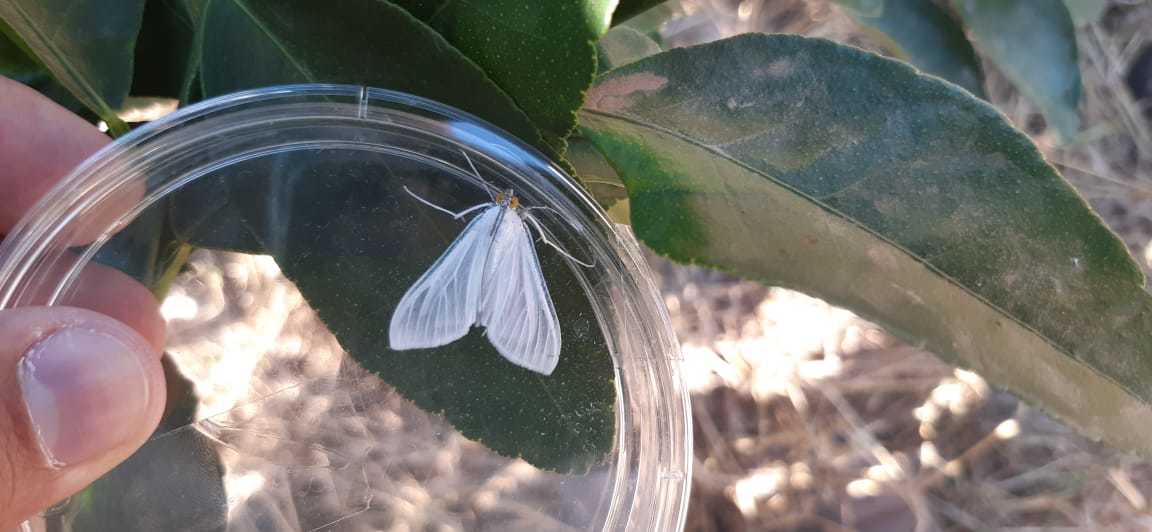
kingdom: Animalia
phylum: Arthropoda
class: Insecta
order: Lepidoptera
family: Crambidae
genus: Palpita
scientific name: Palpita flegia
